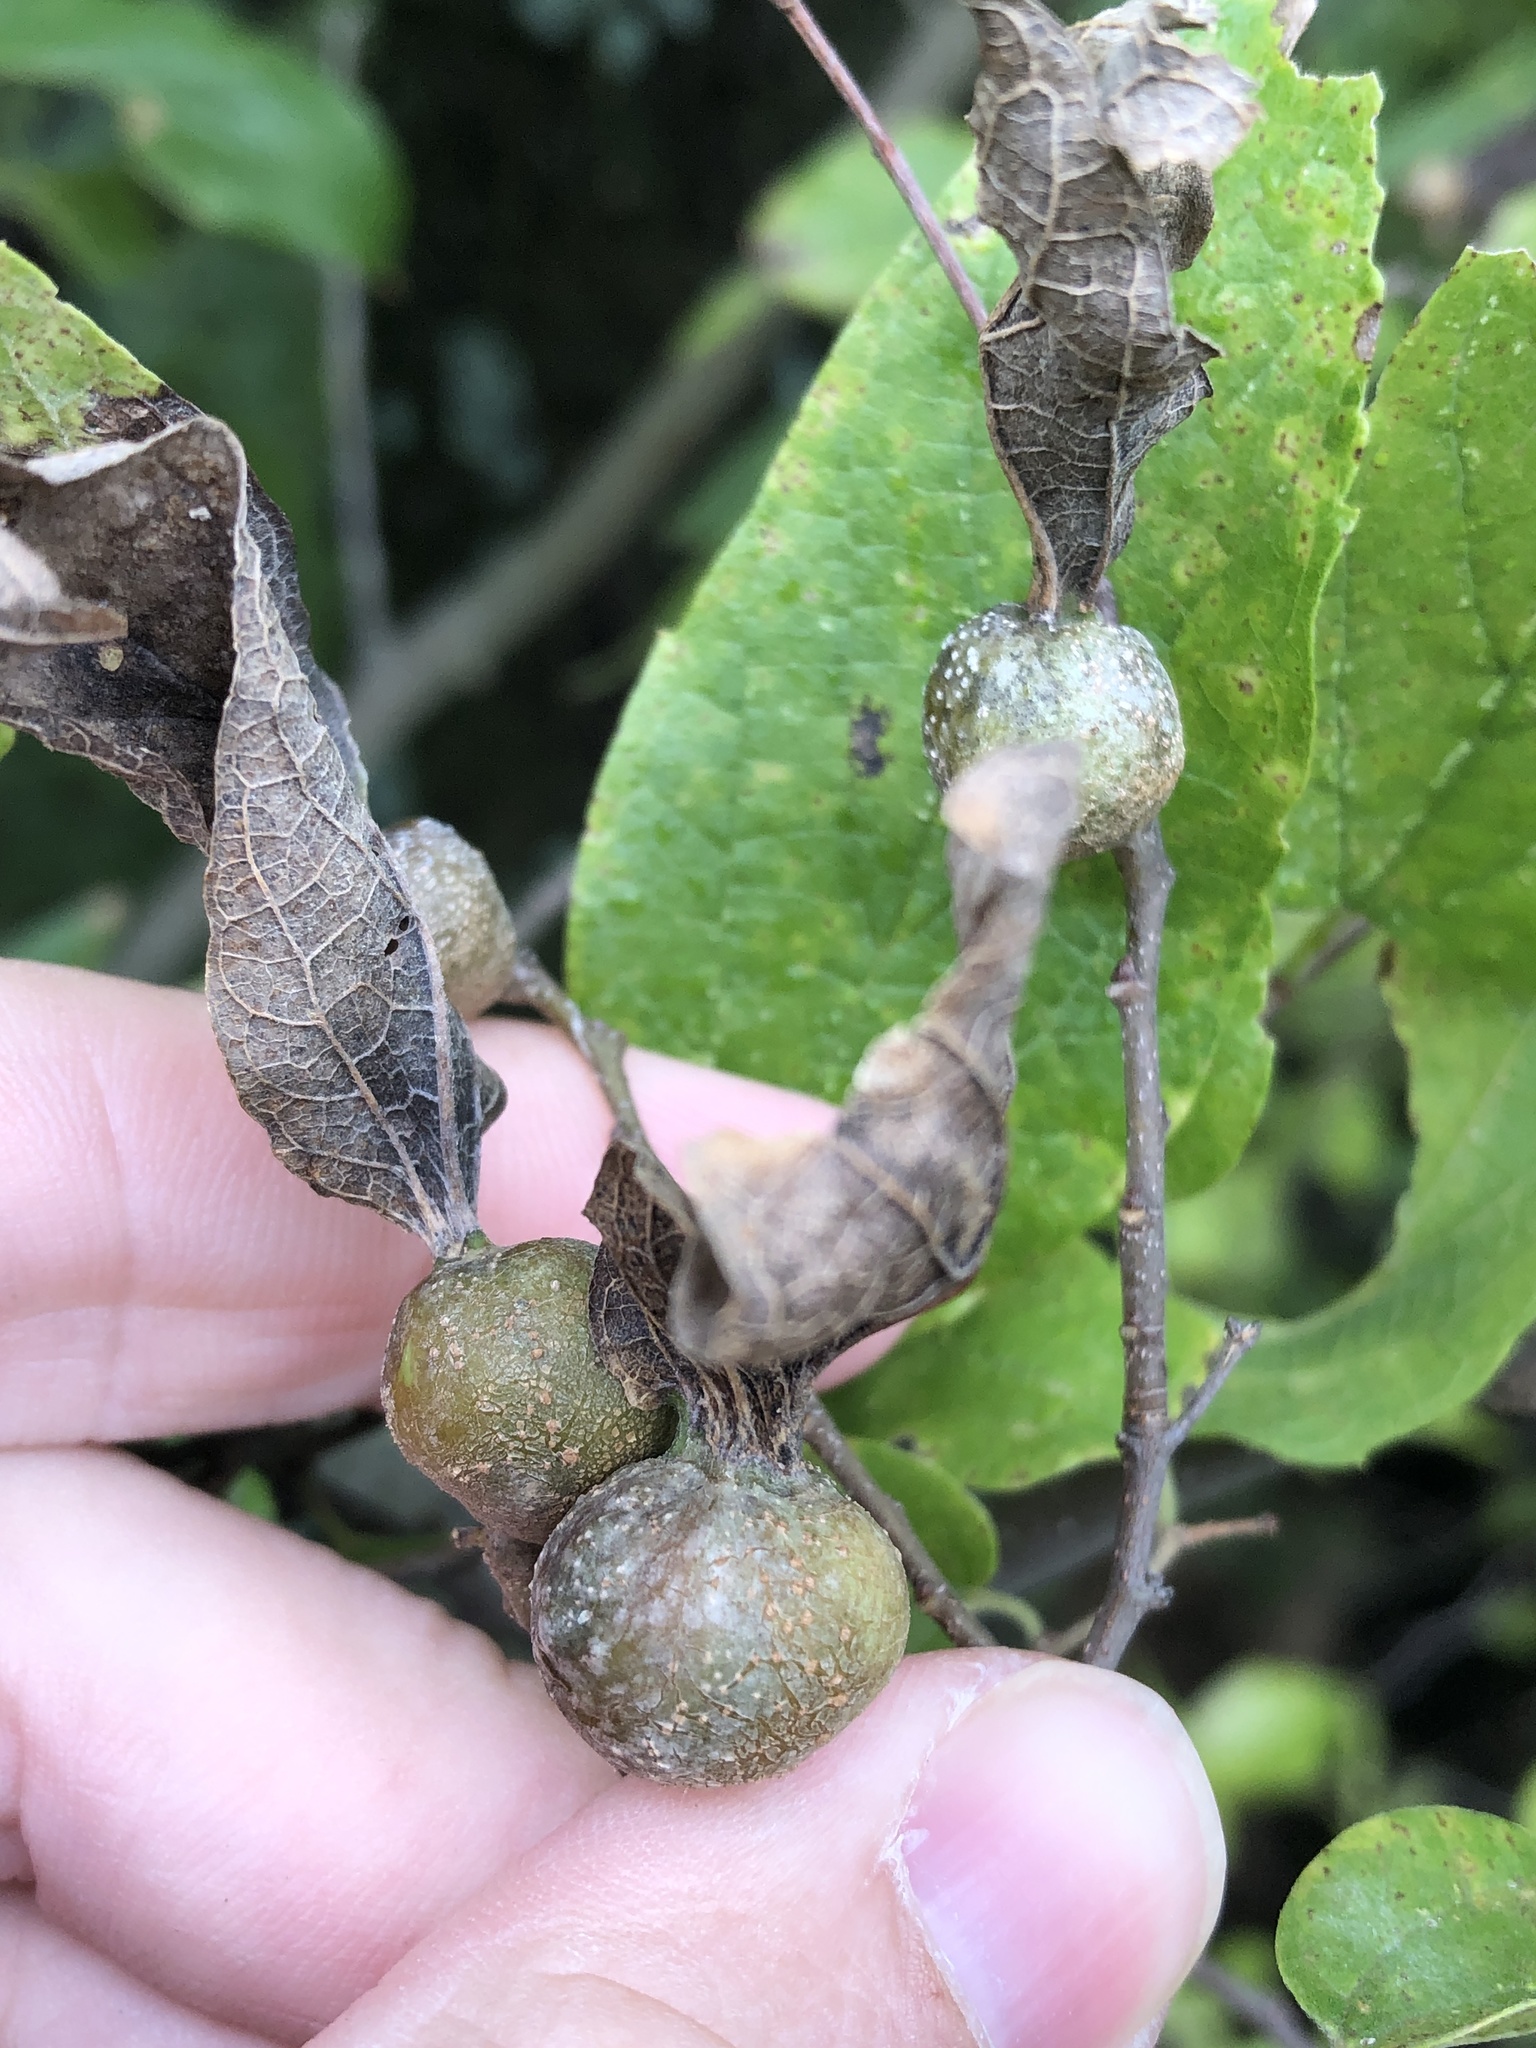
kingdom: Animalia
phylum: Arthropoda
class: Insecta
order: Hemiptera
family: Aphalaridae
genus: Pachypsylla
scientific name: Pachypsylla venusta
